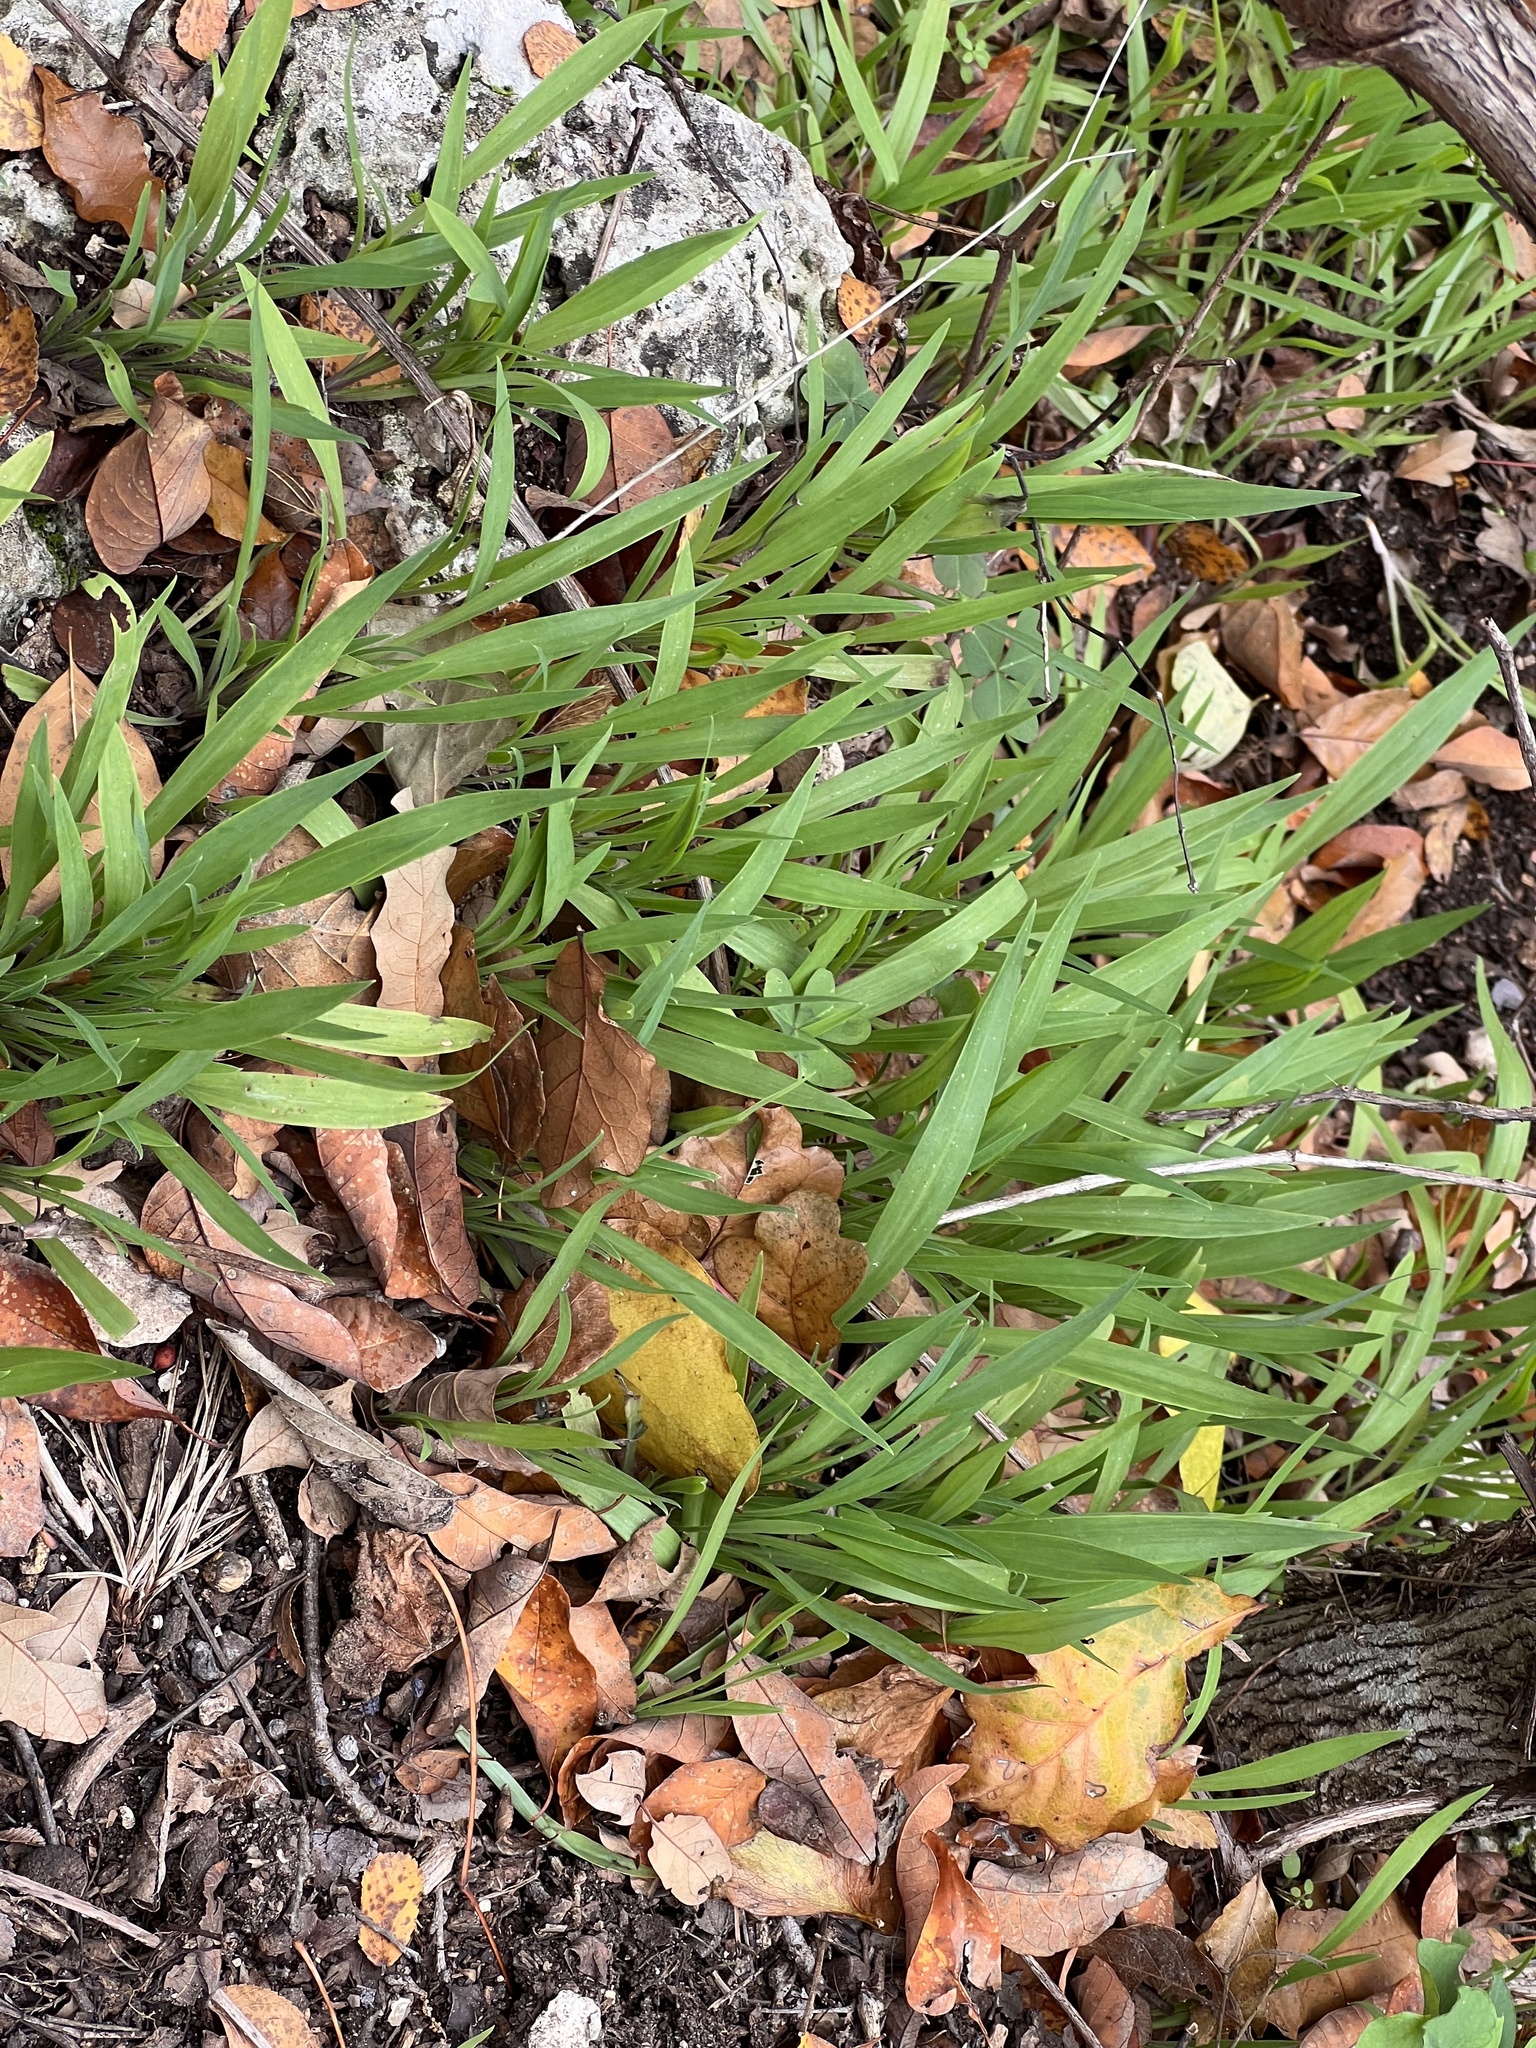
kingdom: Plantae
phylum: Tracheophyta
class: Liliopsida
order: Commelinales
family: Commelinaceae
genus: Tinantia
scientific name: Tinantia anomala
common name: False dayflower
